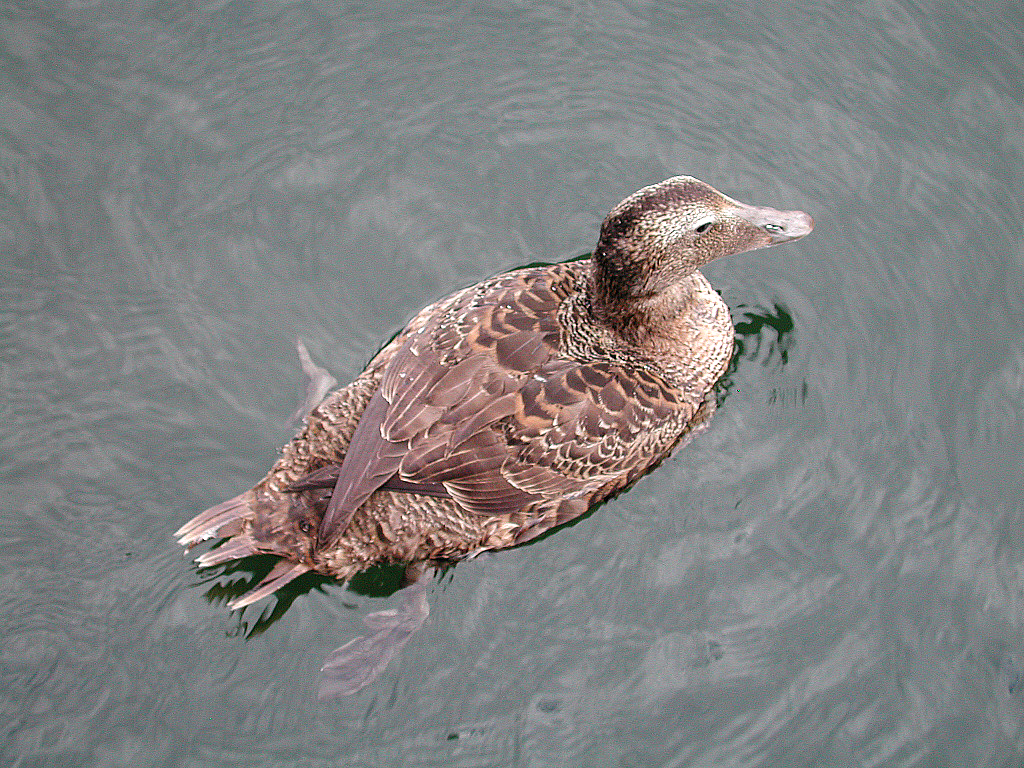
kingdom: Animalia
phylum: Chordata
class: Aves
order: Anseriformes
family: Anatidae
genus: Somateria
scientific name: Somateria mollissima
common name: Common eider
